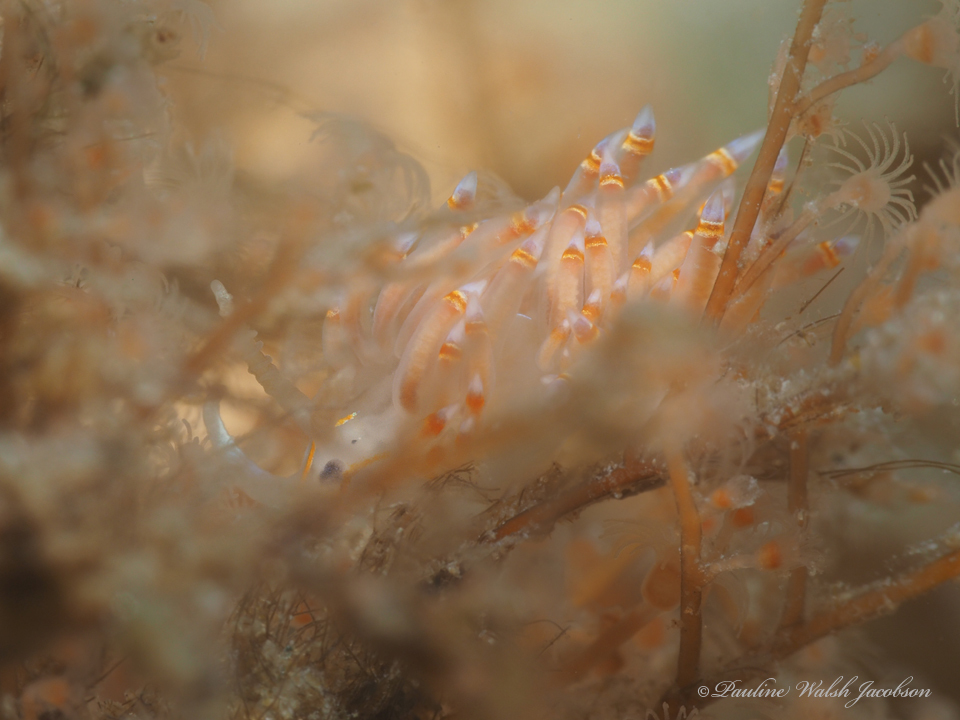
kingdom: Animalia
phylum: Mollusca
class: Gastropoda
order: Nudibranchia
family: Myrrhinidae
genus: Dondice
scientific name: Dondice jupiteriensis
